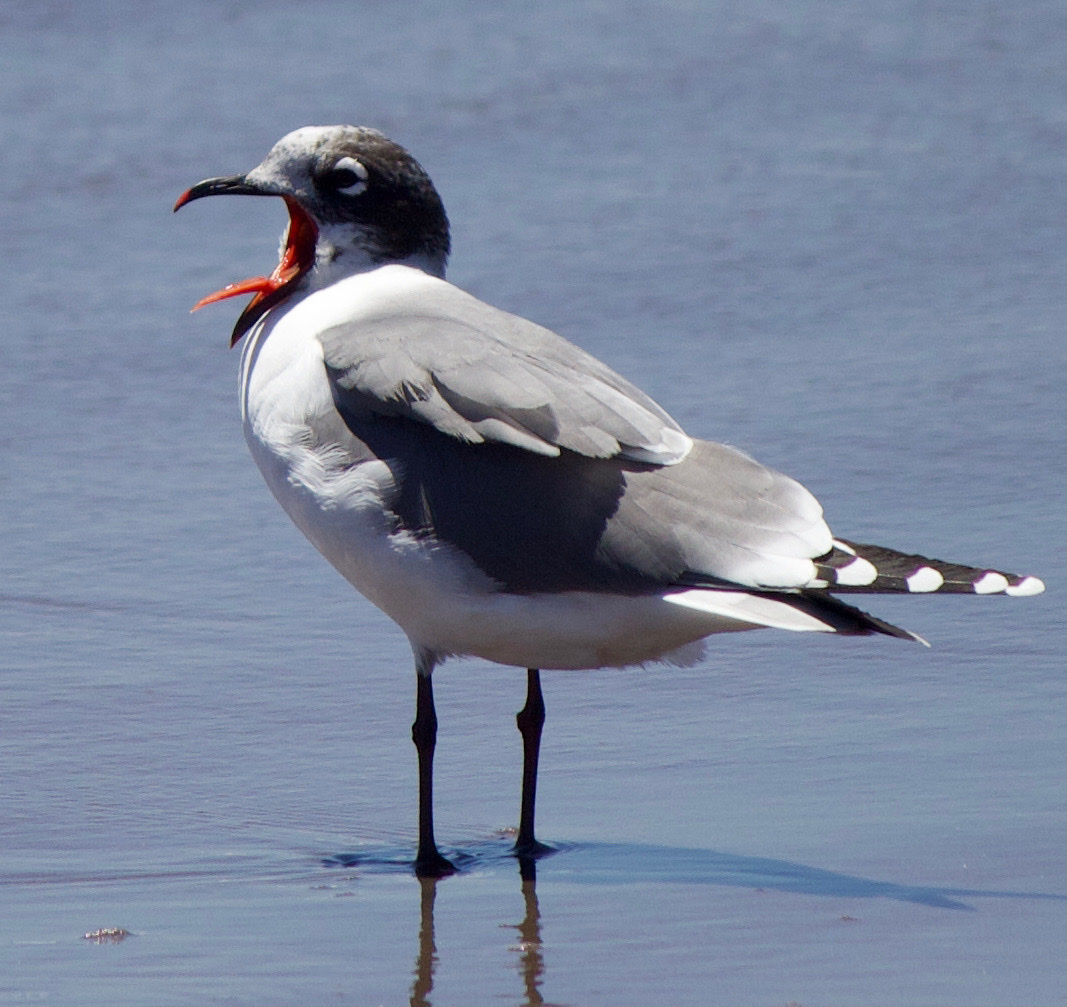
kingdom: Animalia
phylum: Chordata
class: Aves
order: Charadriiformes
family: Laridae
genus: Leucophaeus
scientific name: Leucophaeus pipixcan
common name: Franklin's gull
